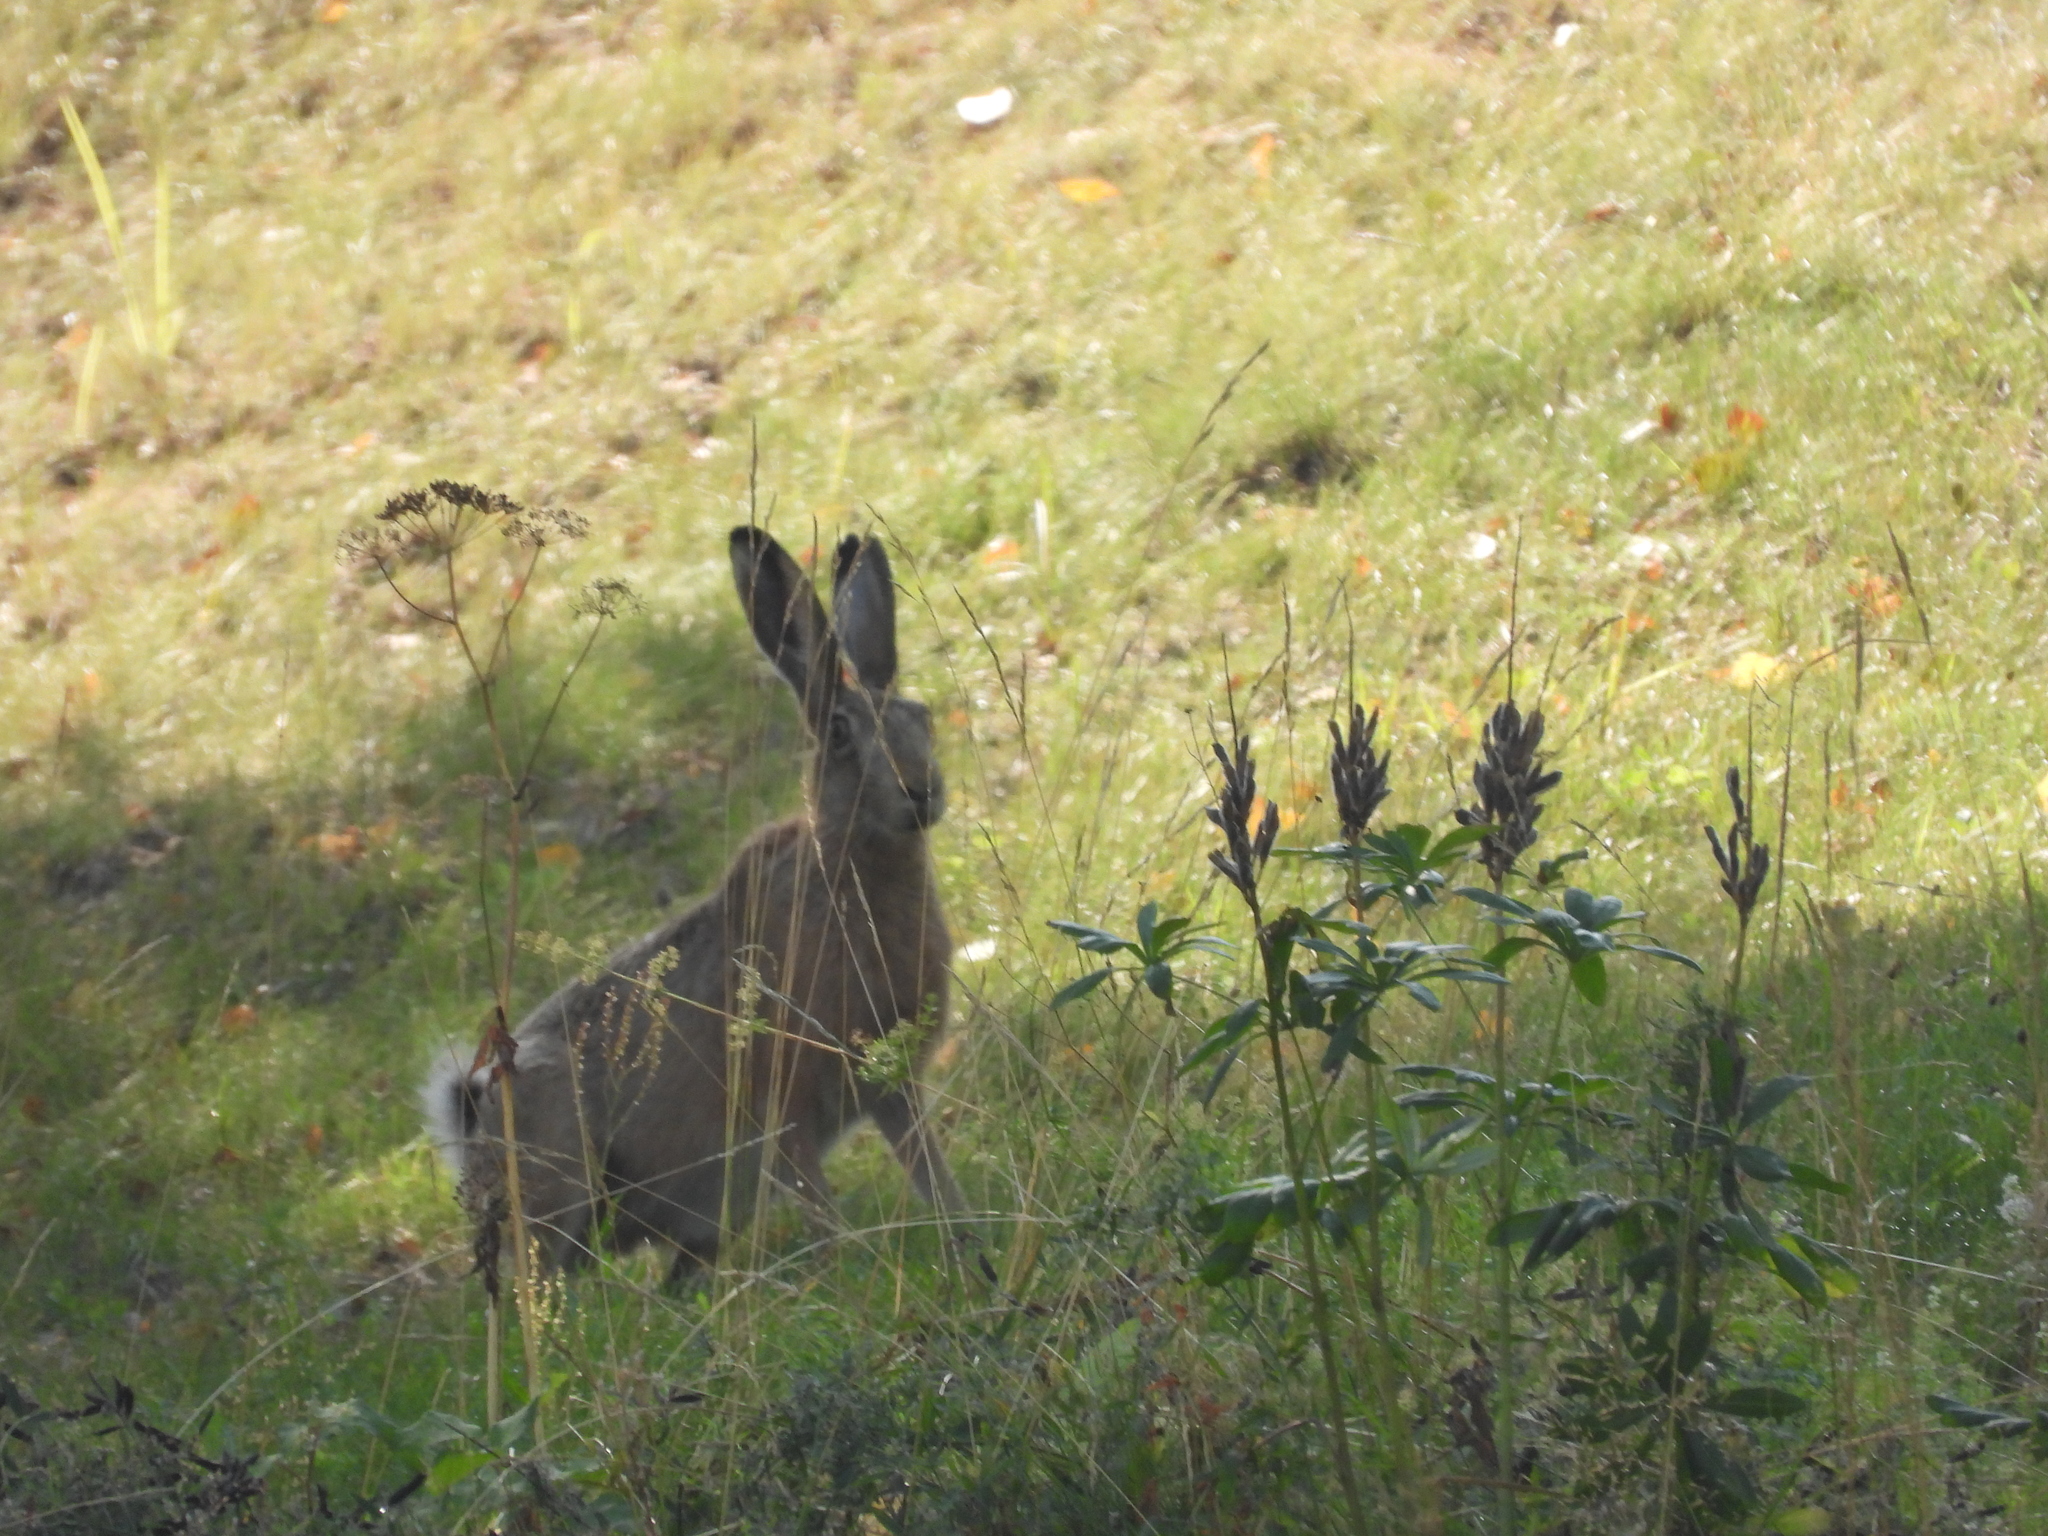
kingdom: Animalia
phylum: Chordata
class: Mammalia
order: Lagomorpha
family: Leporidae
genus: Lepus
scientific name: Lepus europaeus
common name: European hare
